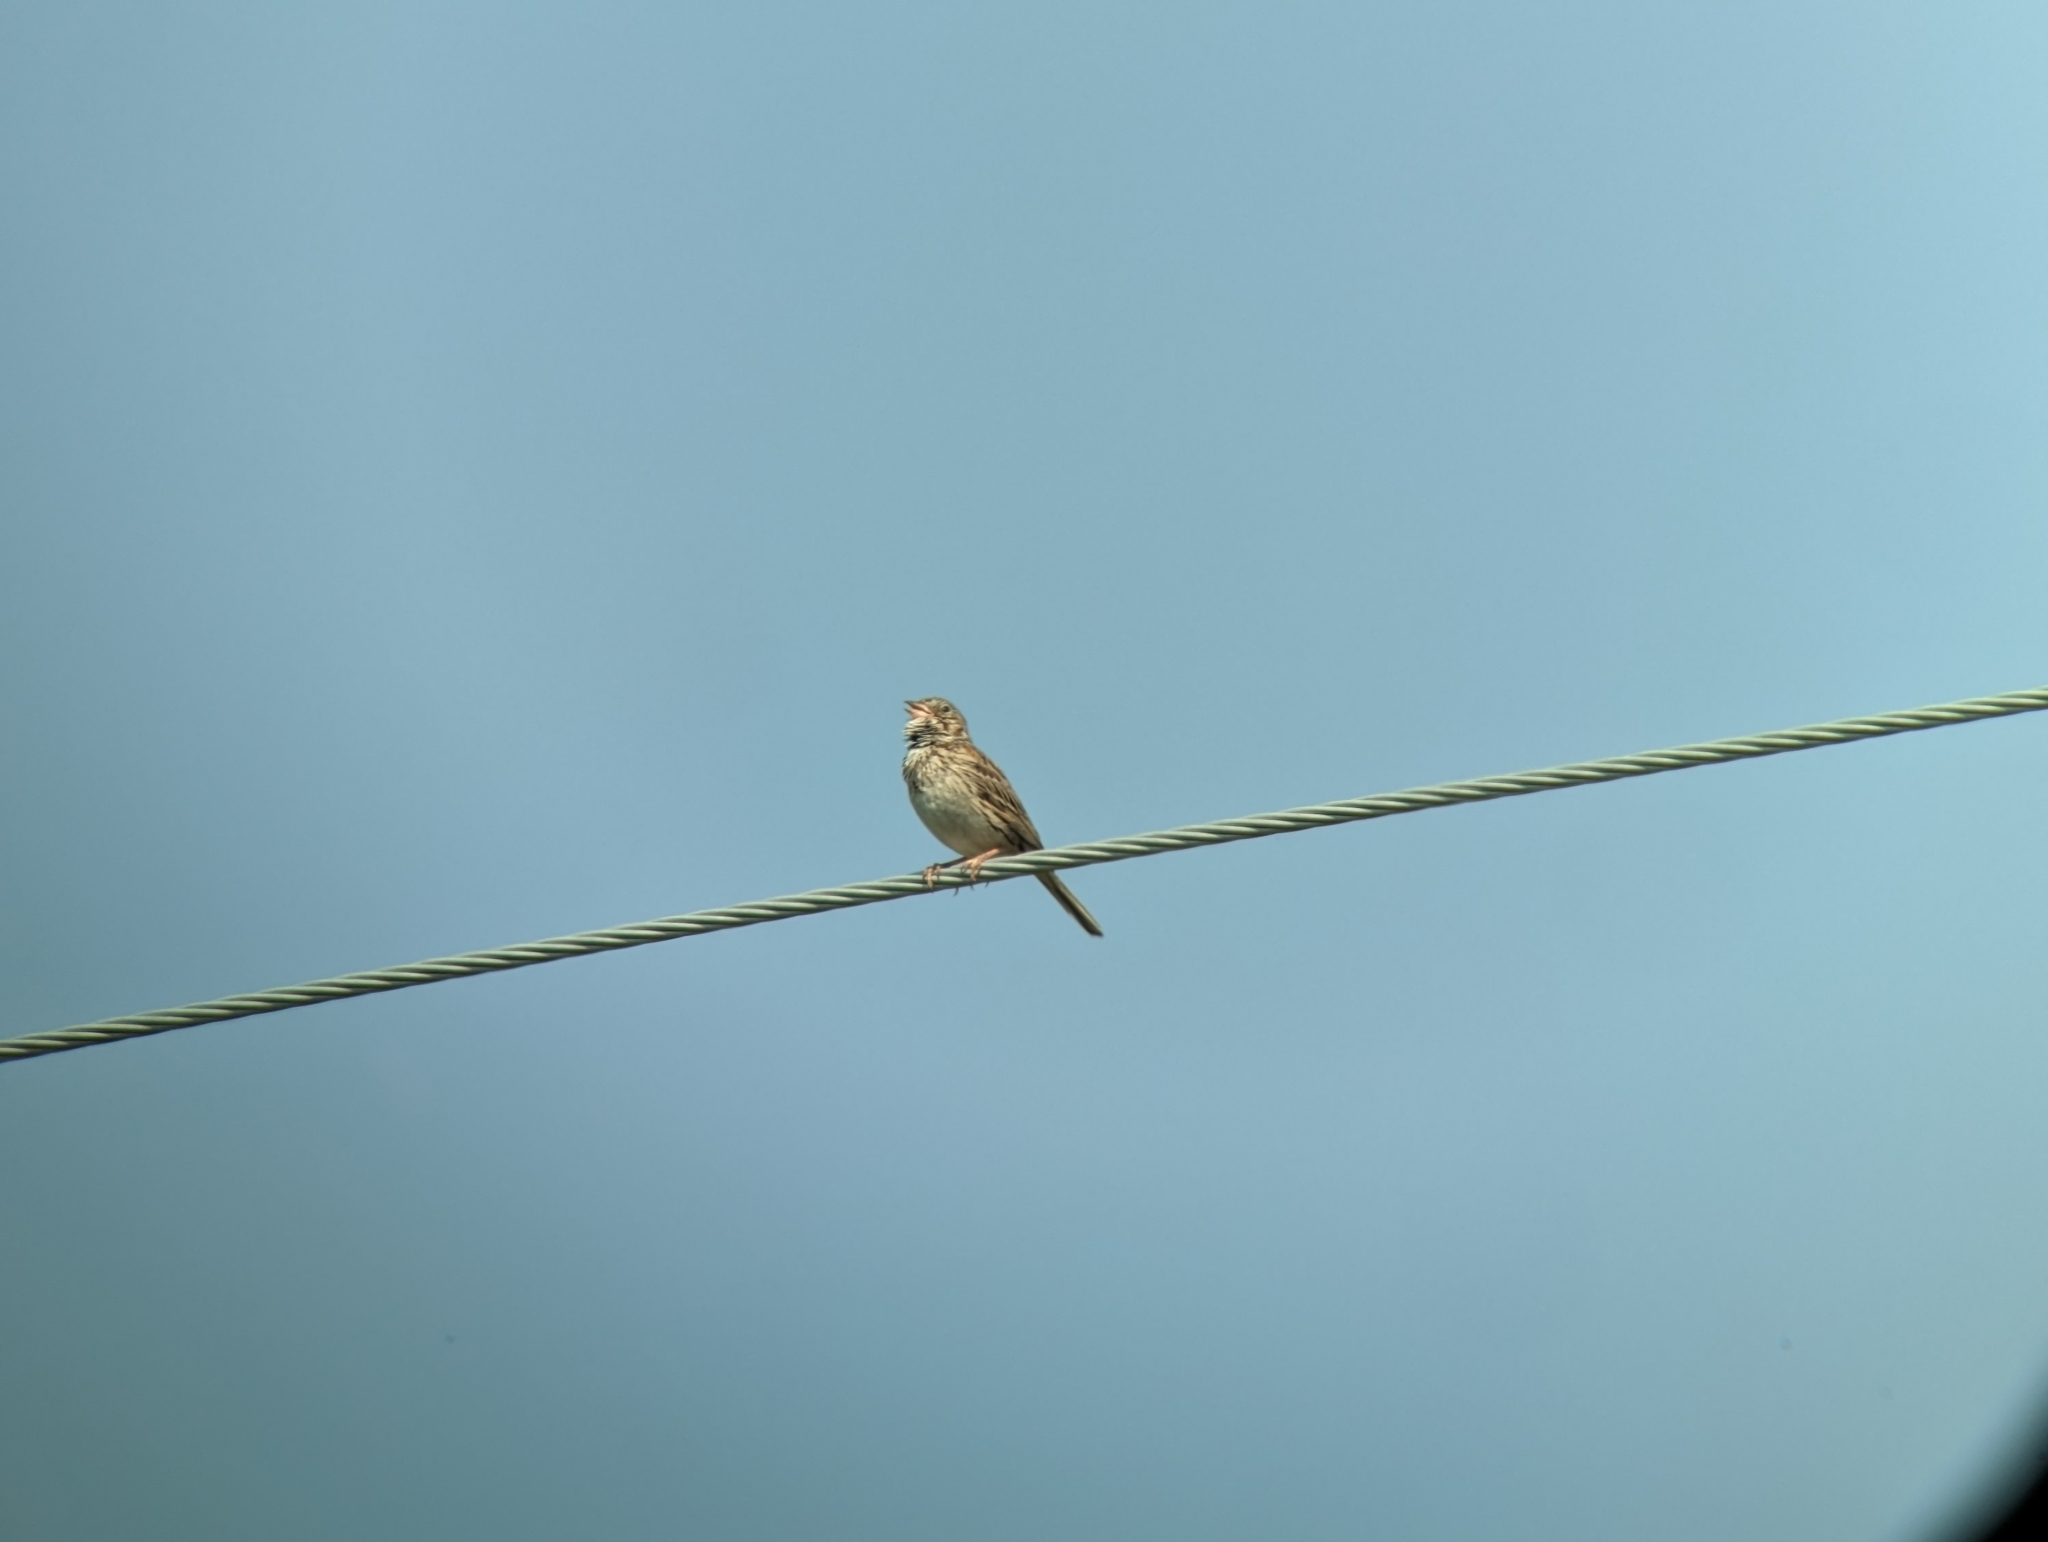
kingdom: Animalia
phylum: Chordata
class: Aves
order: Passeriformes
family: Passerellidae
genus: Pooecetes
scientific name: Pooecetes gramineus
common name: Vesper sparrow
